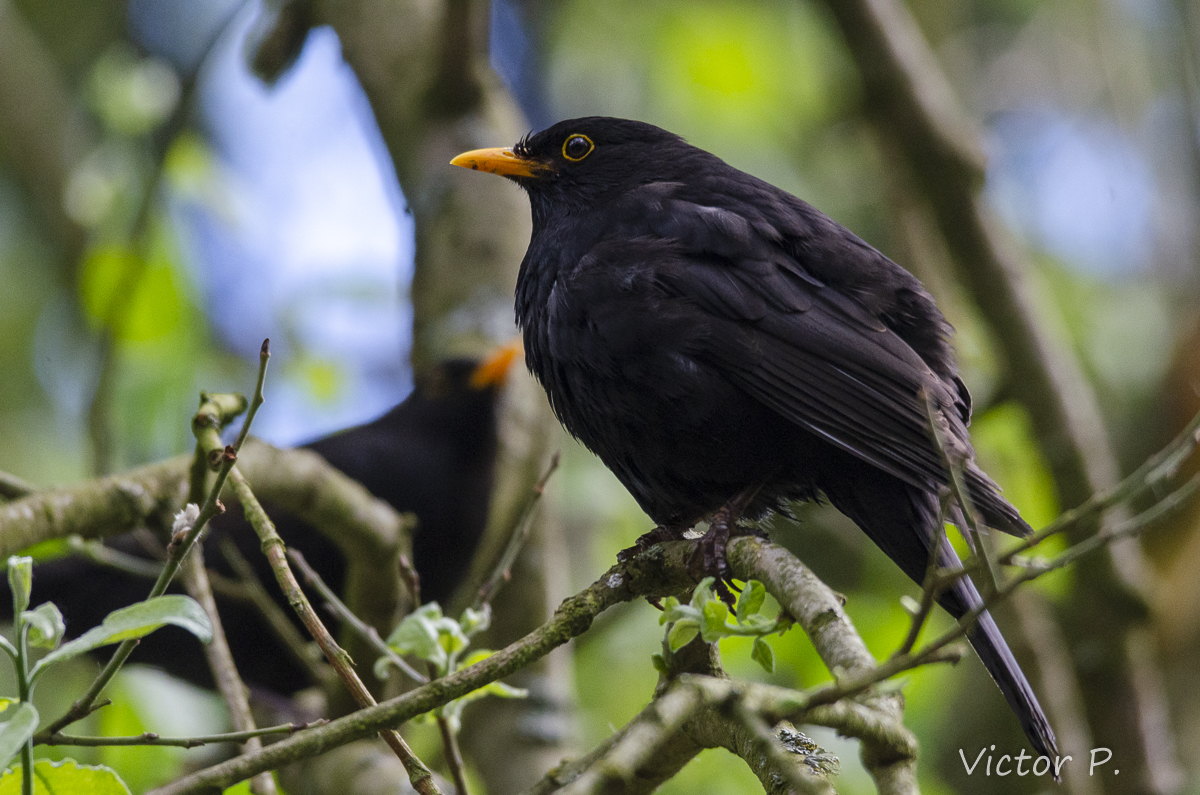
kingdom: Animalia
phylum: Chordata
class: Aves
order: Passeriformes
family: Turdidae
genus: Turdus
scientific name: Turdus merula
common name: Common blackbird
